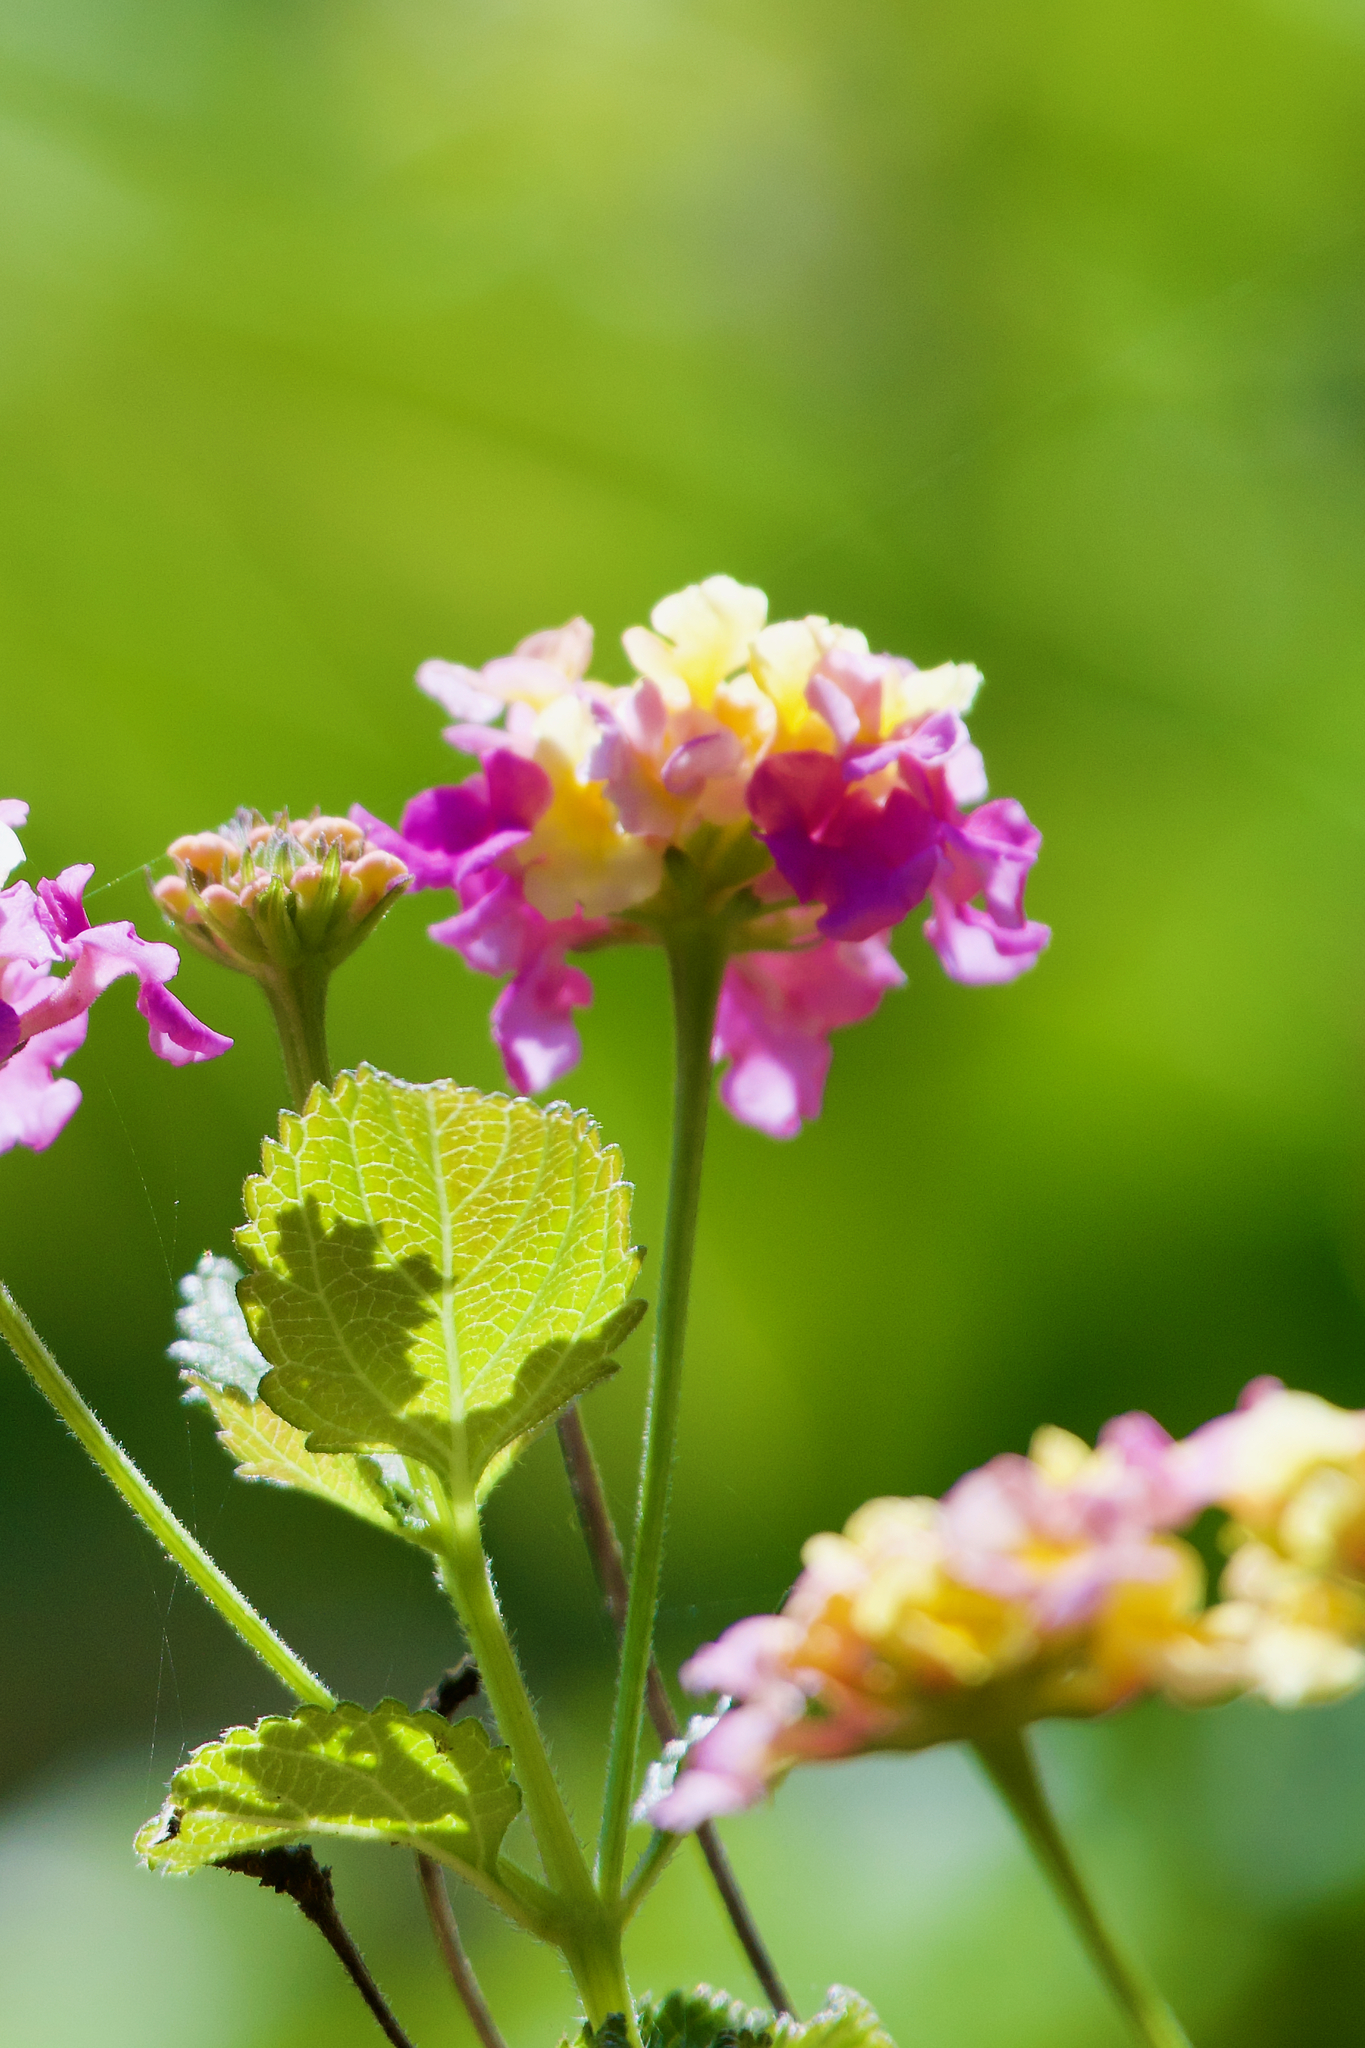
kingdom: Plantae
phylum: Tracheophyta
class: Magnoliopsida
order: Lamiales
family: Verbenaceae
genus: Lantana
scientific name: Lantana camara
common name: Lantana
